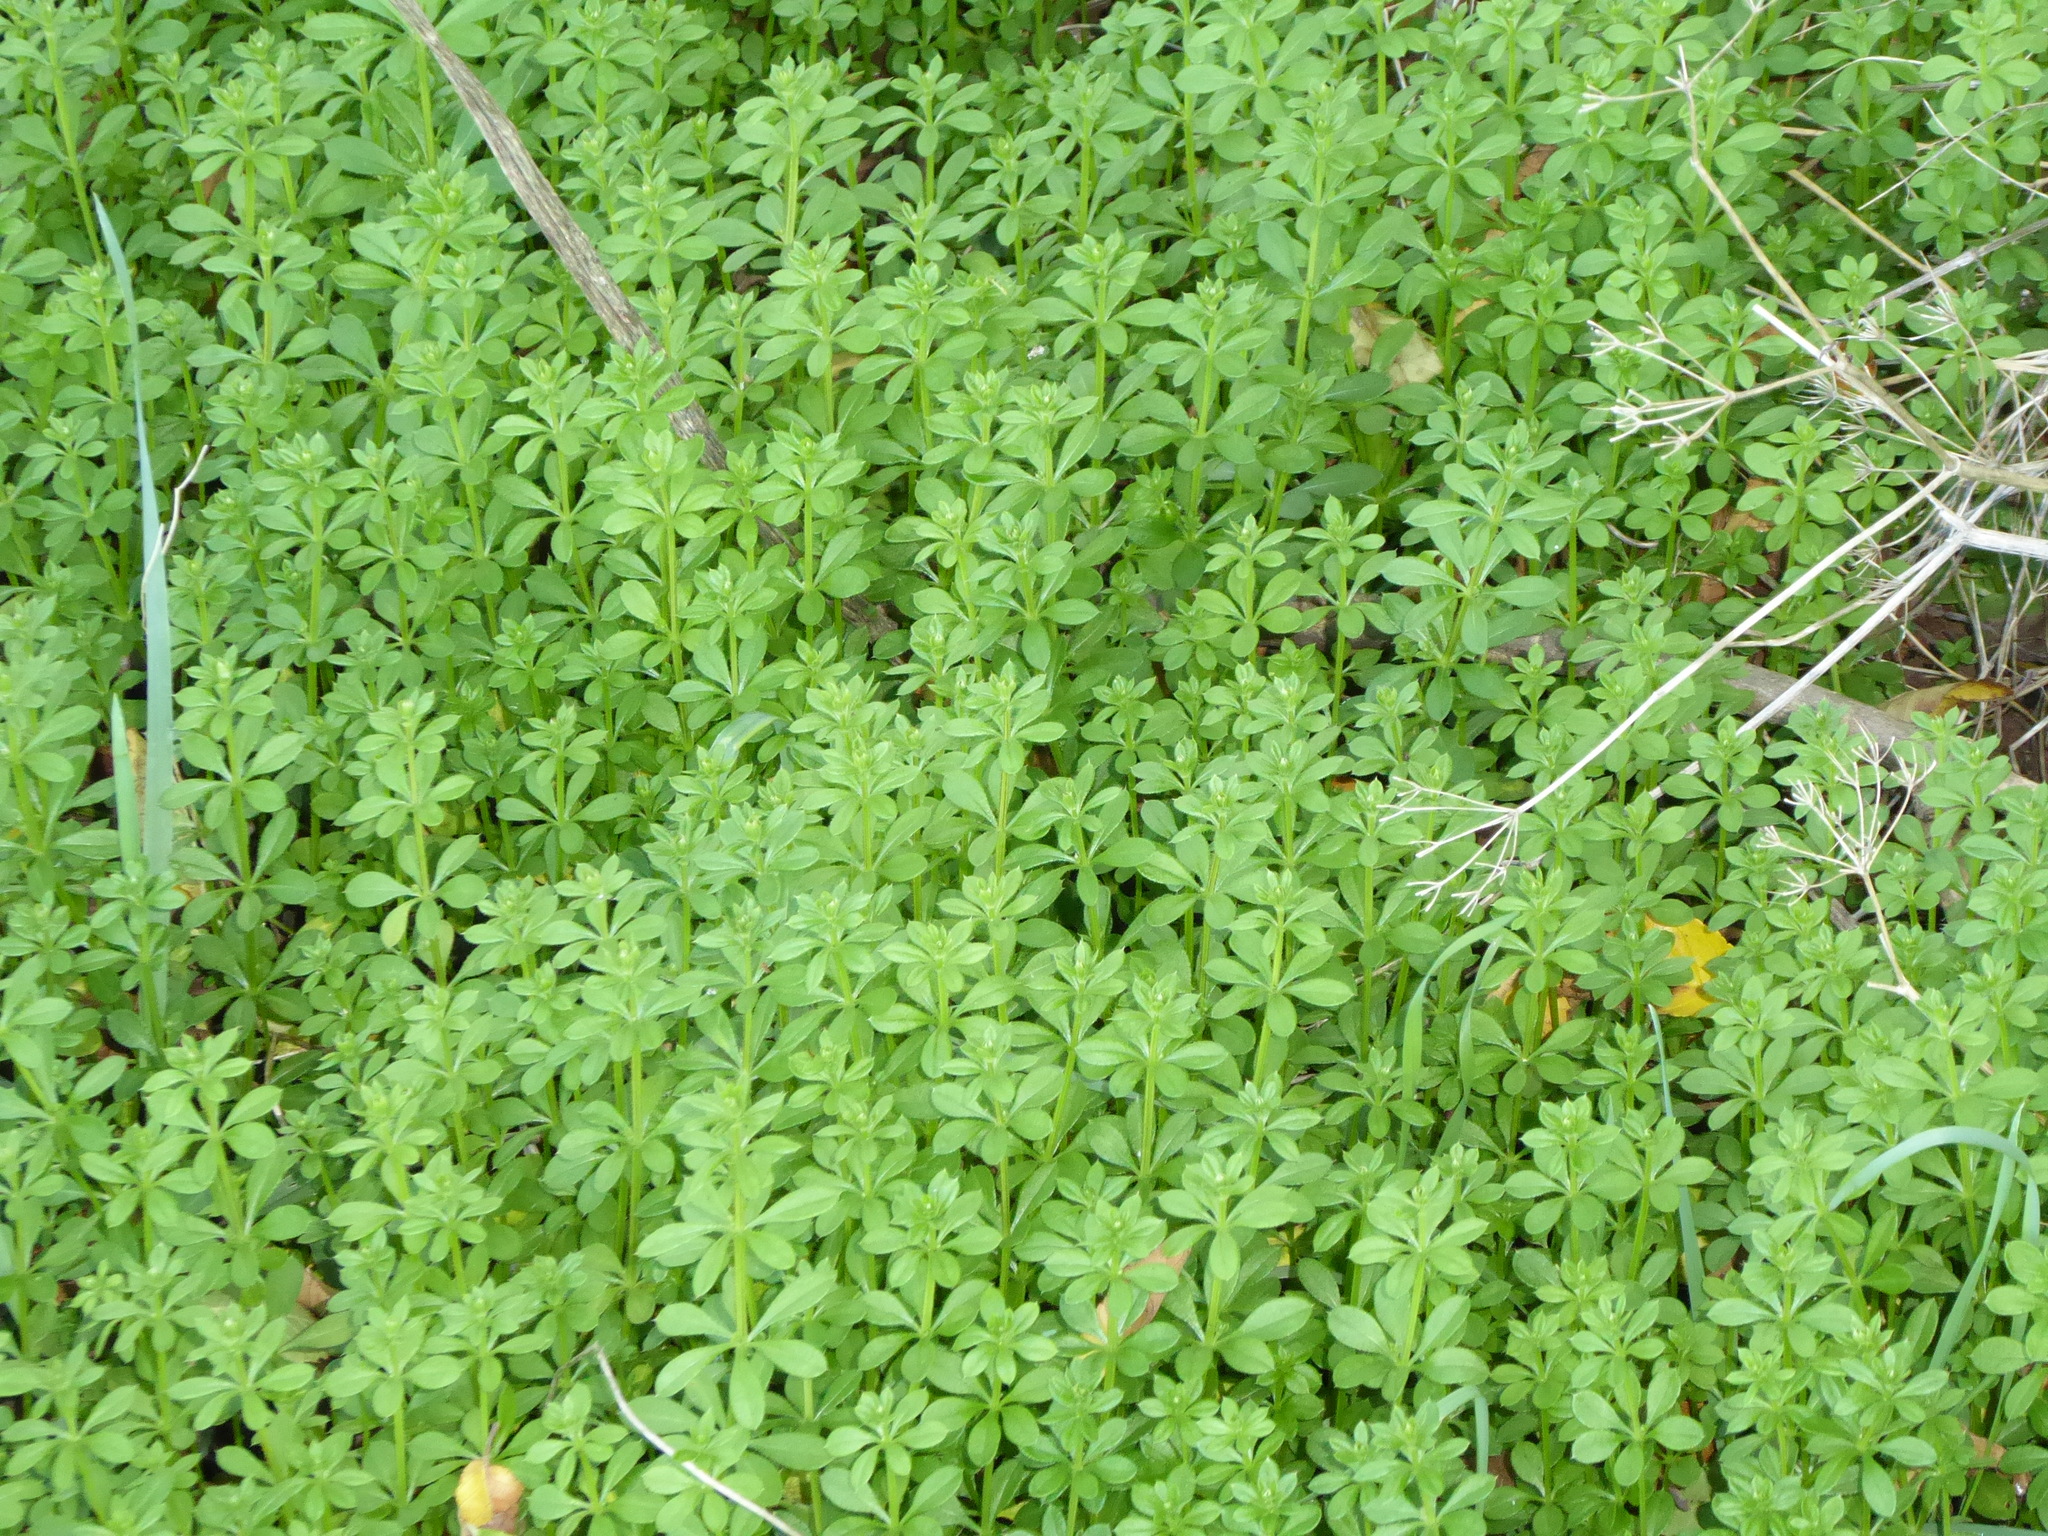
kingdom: Plantae
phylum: Tracheophyta
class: Magnoliopsida
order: Gentianales
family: Rubiaceae
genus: Galium
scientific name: Galium aparine
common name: Cleavers
